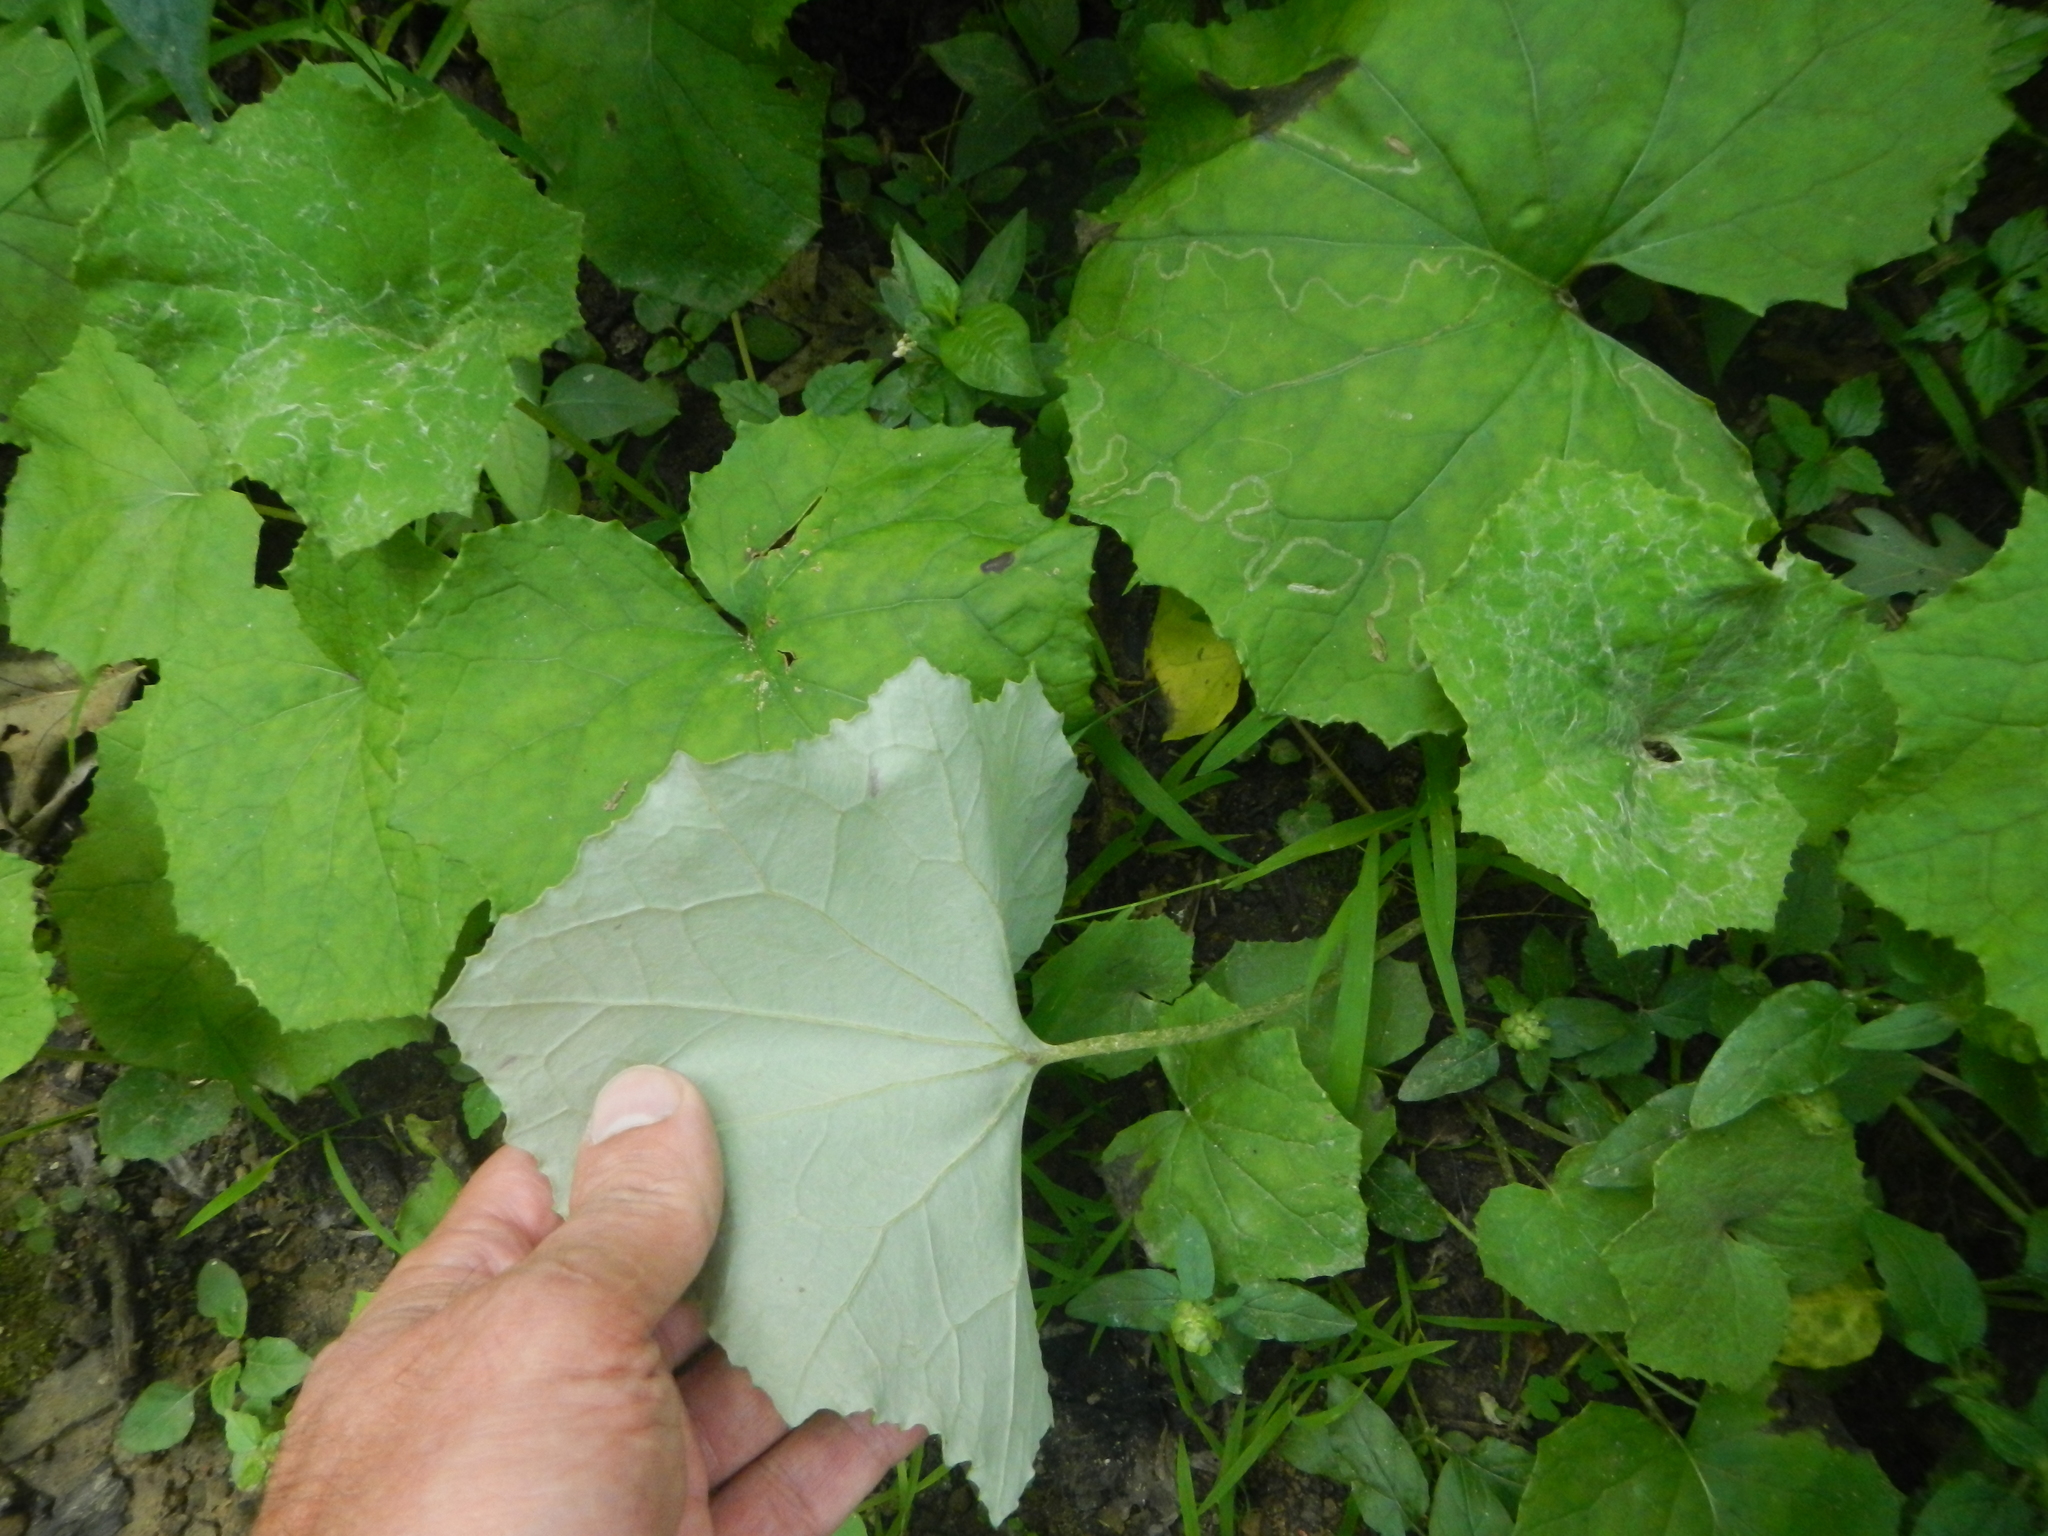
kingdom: Plantae
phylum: Tracheophyta
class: Magnoliopsida
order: Asterales
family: Asteraceae
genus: Tussilago
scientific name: Tussilago farfara
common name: Coltsfoot
